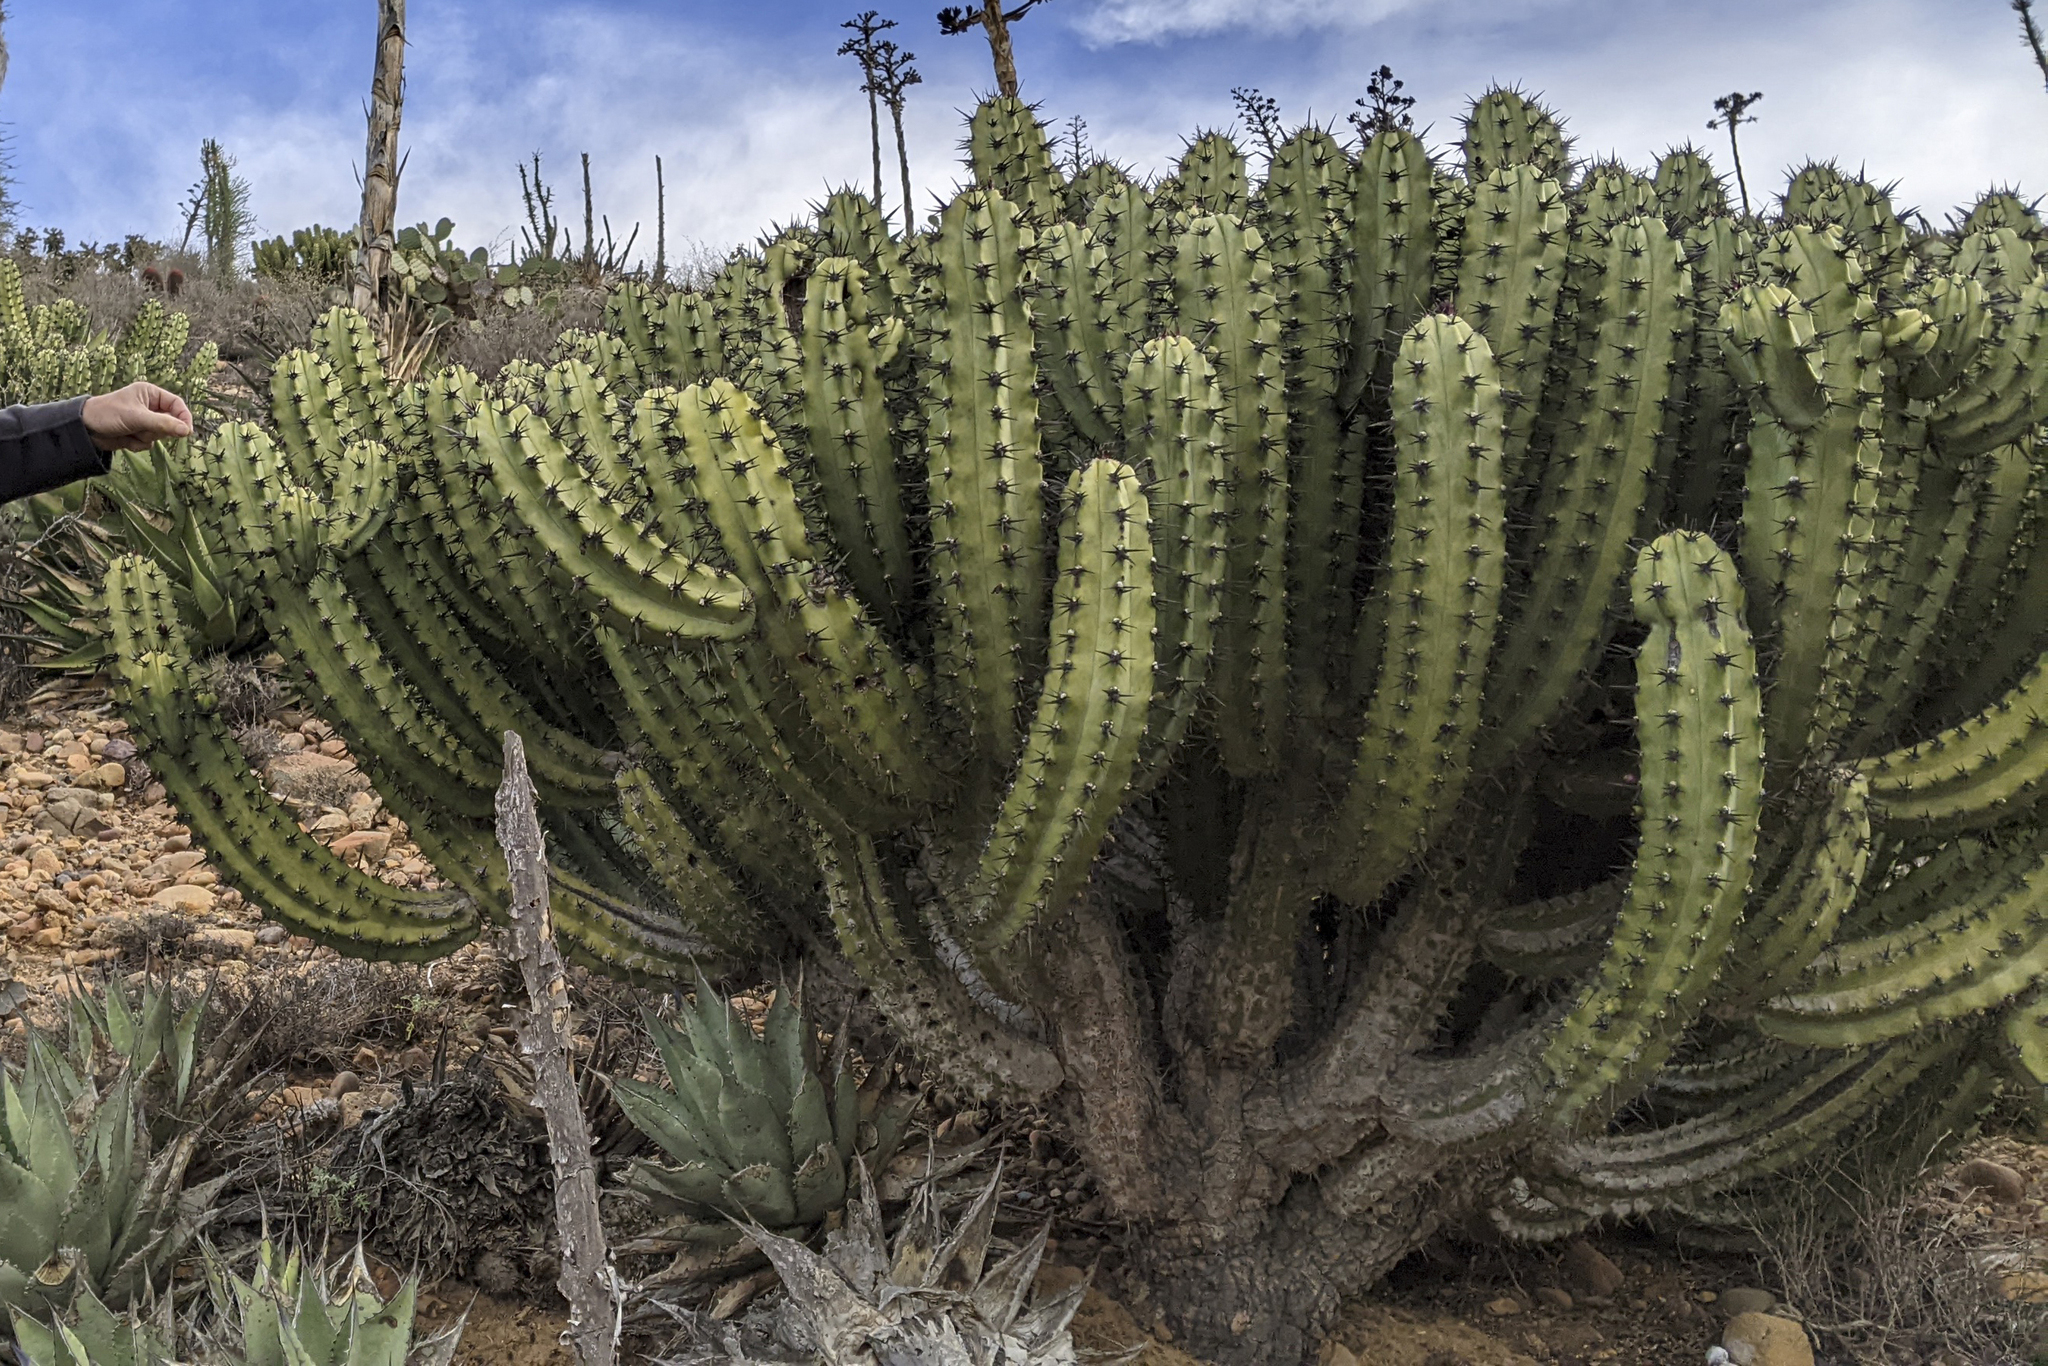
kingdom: Plantae
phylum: Tracheophyta
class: Magnoliopsida
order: Caryophyllales
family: Cactaceae
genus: Myrtillocactus
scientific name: Myrtillocactus cochal
